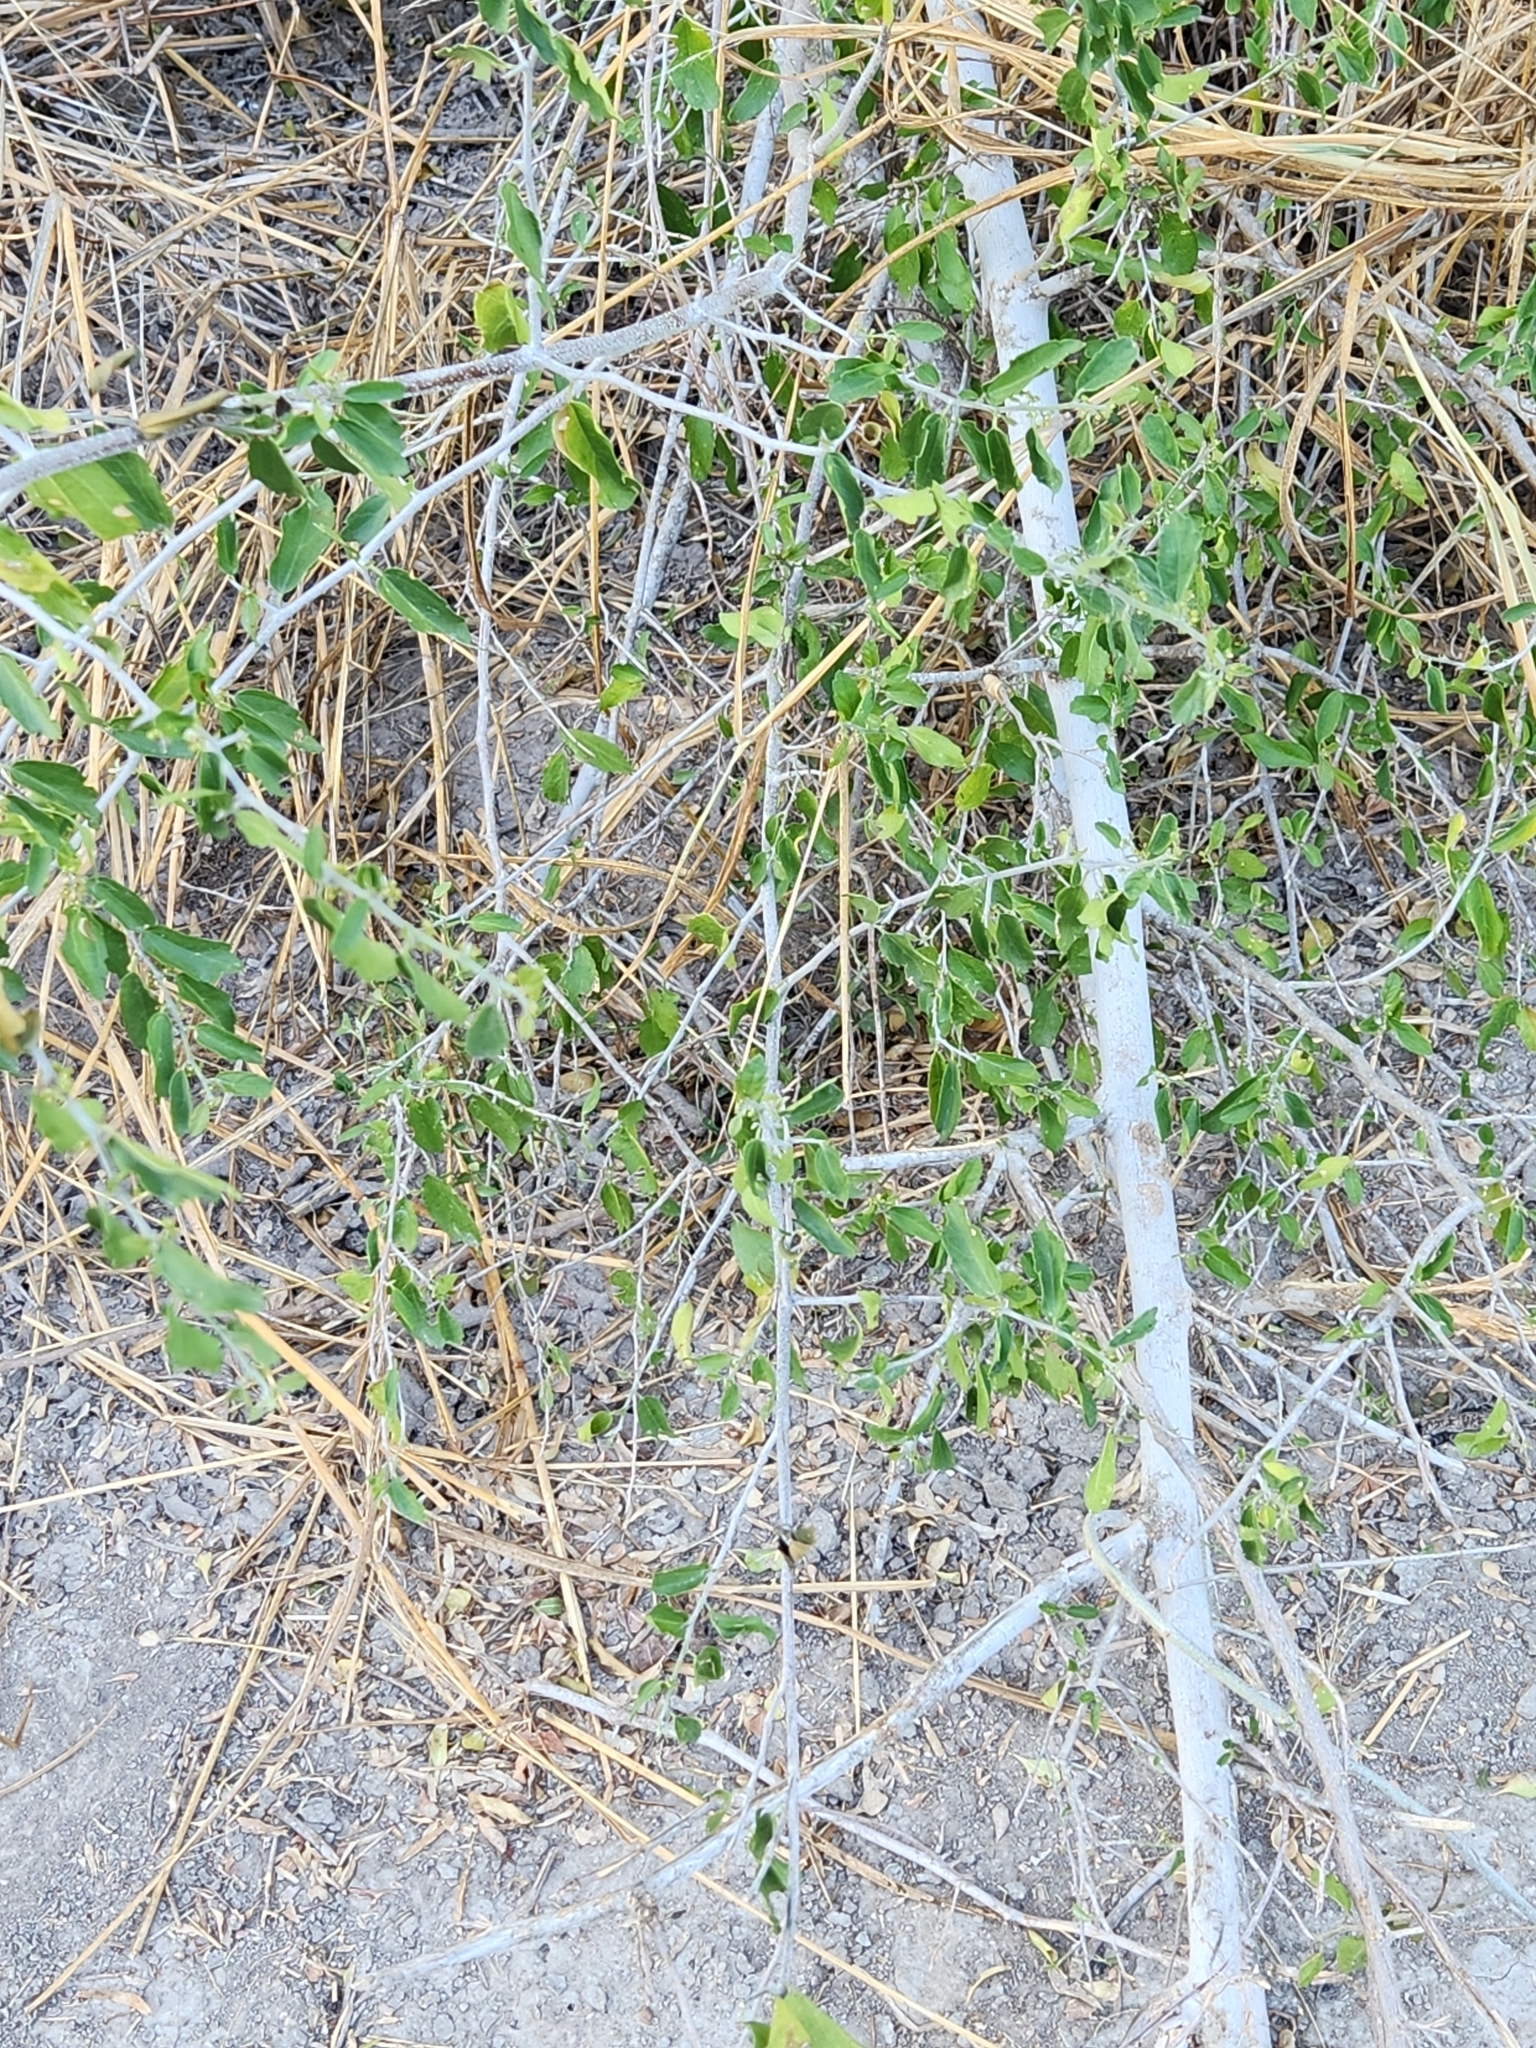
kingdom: Plantae
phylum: Tracheophyta
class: Magnoliopsida
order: Rosales
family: Cannabaceae
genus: Celtis
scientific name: Celtis pallida
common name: Desert hackberry
